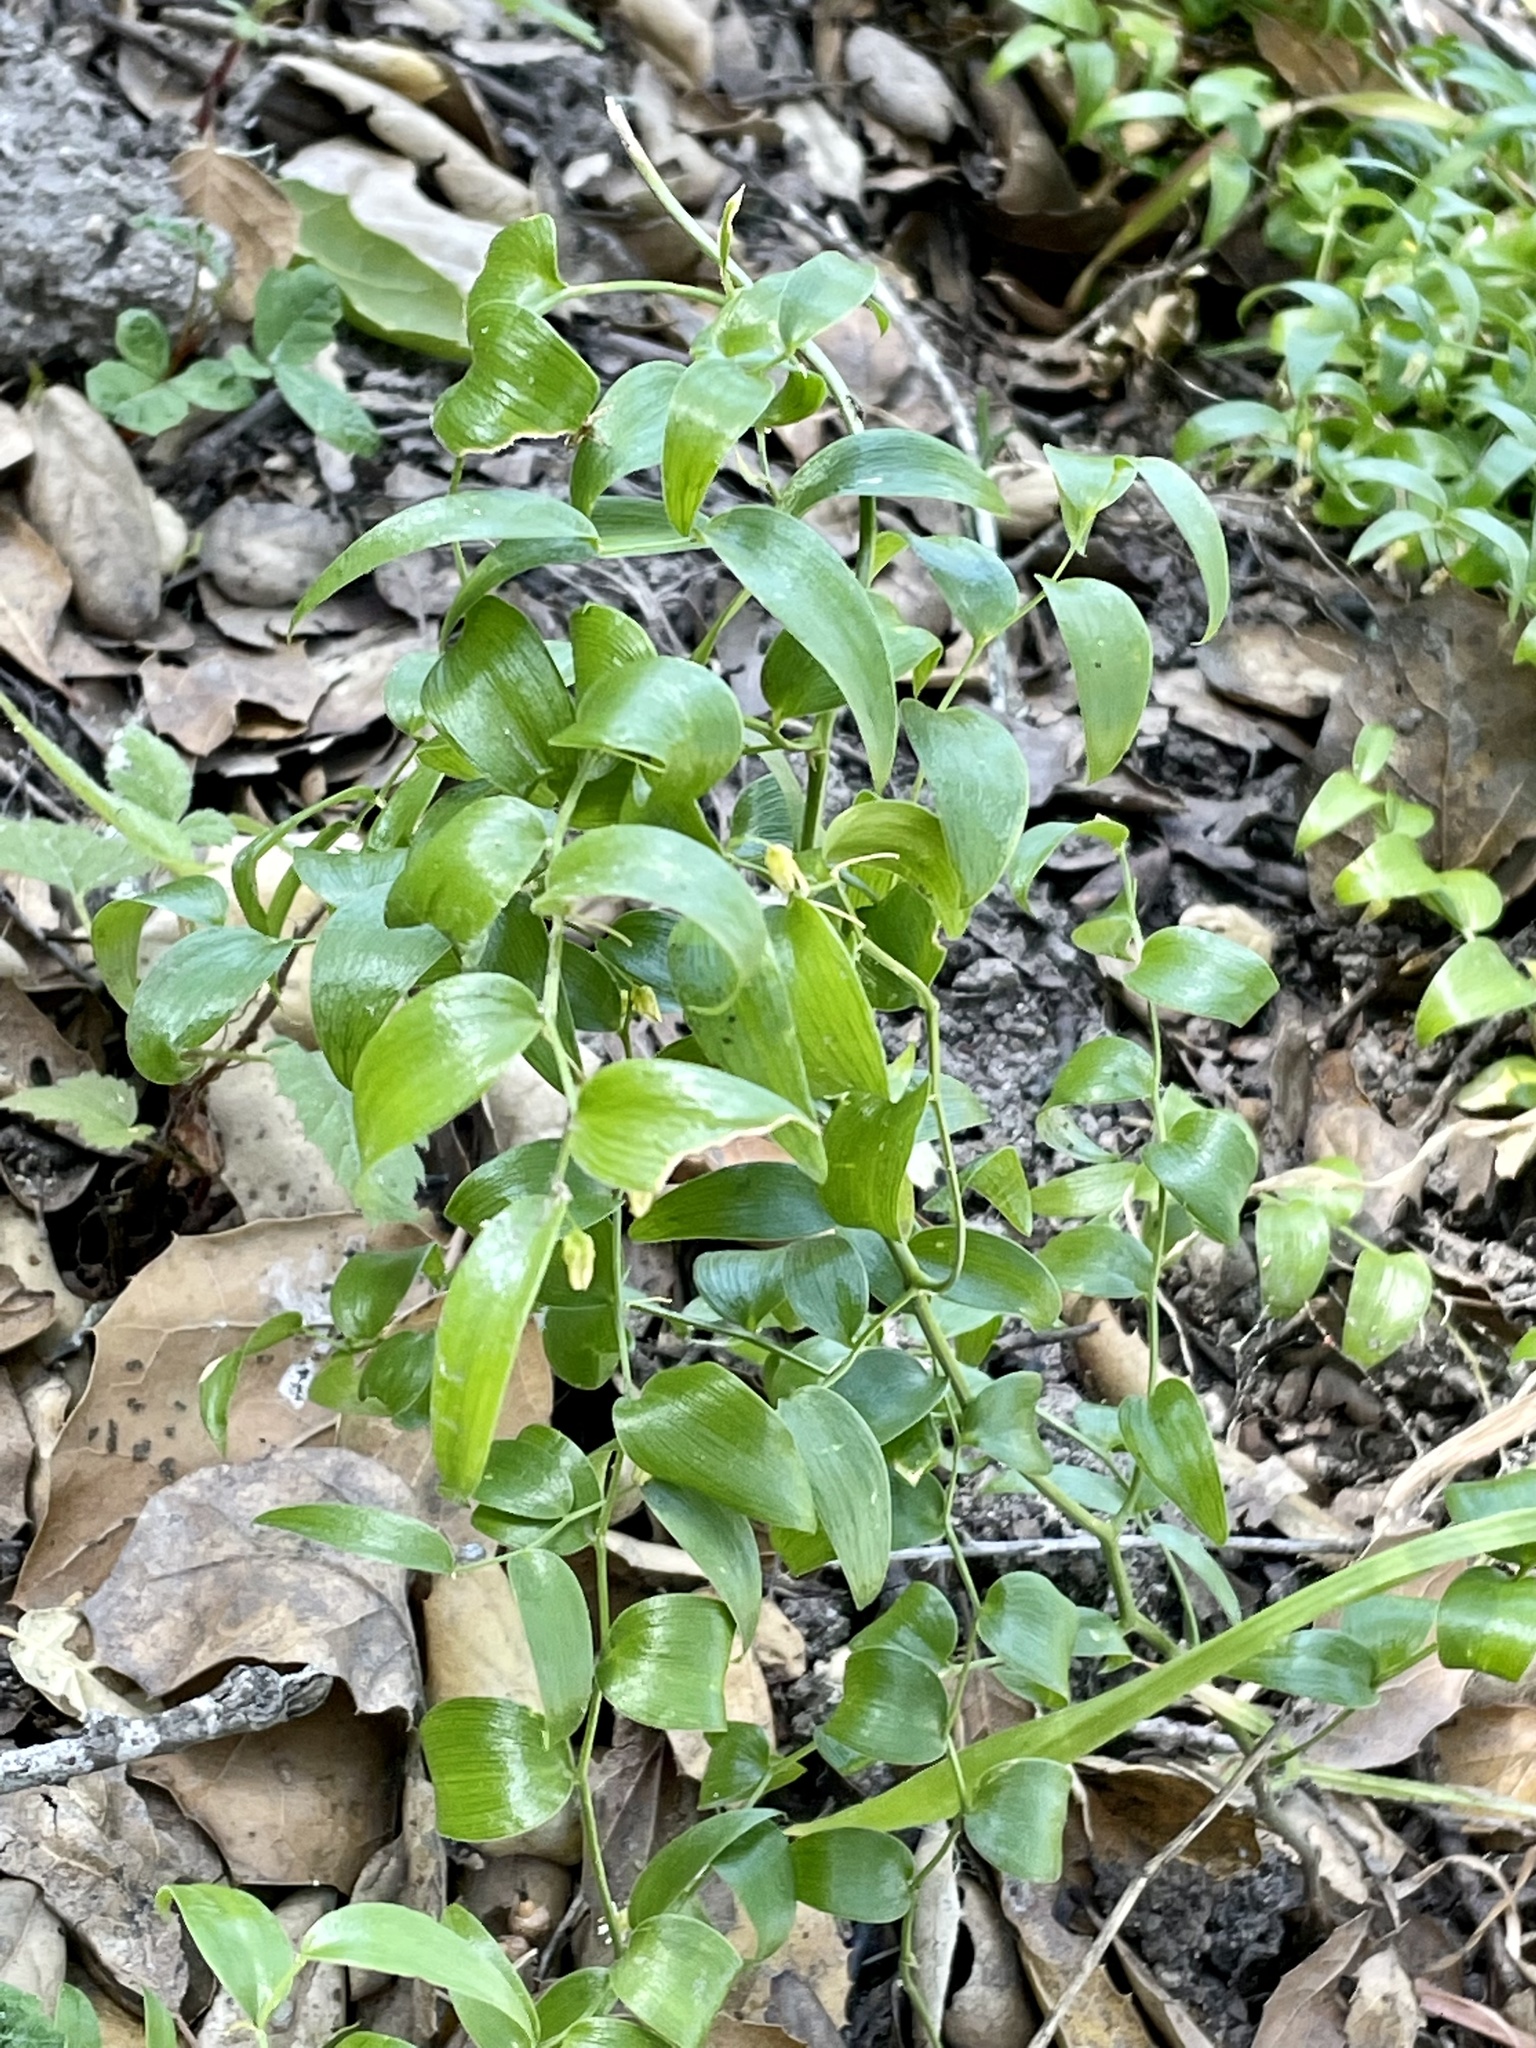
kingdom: Plantae
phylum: Tracheophyta
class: Liliopsida
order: Asparagales
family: Asparagaceae
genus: Asparagus
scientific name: Asparagus asparagoides
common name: African asparagus fern
